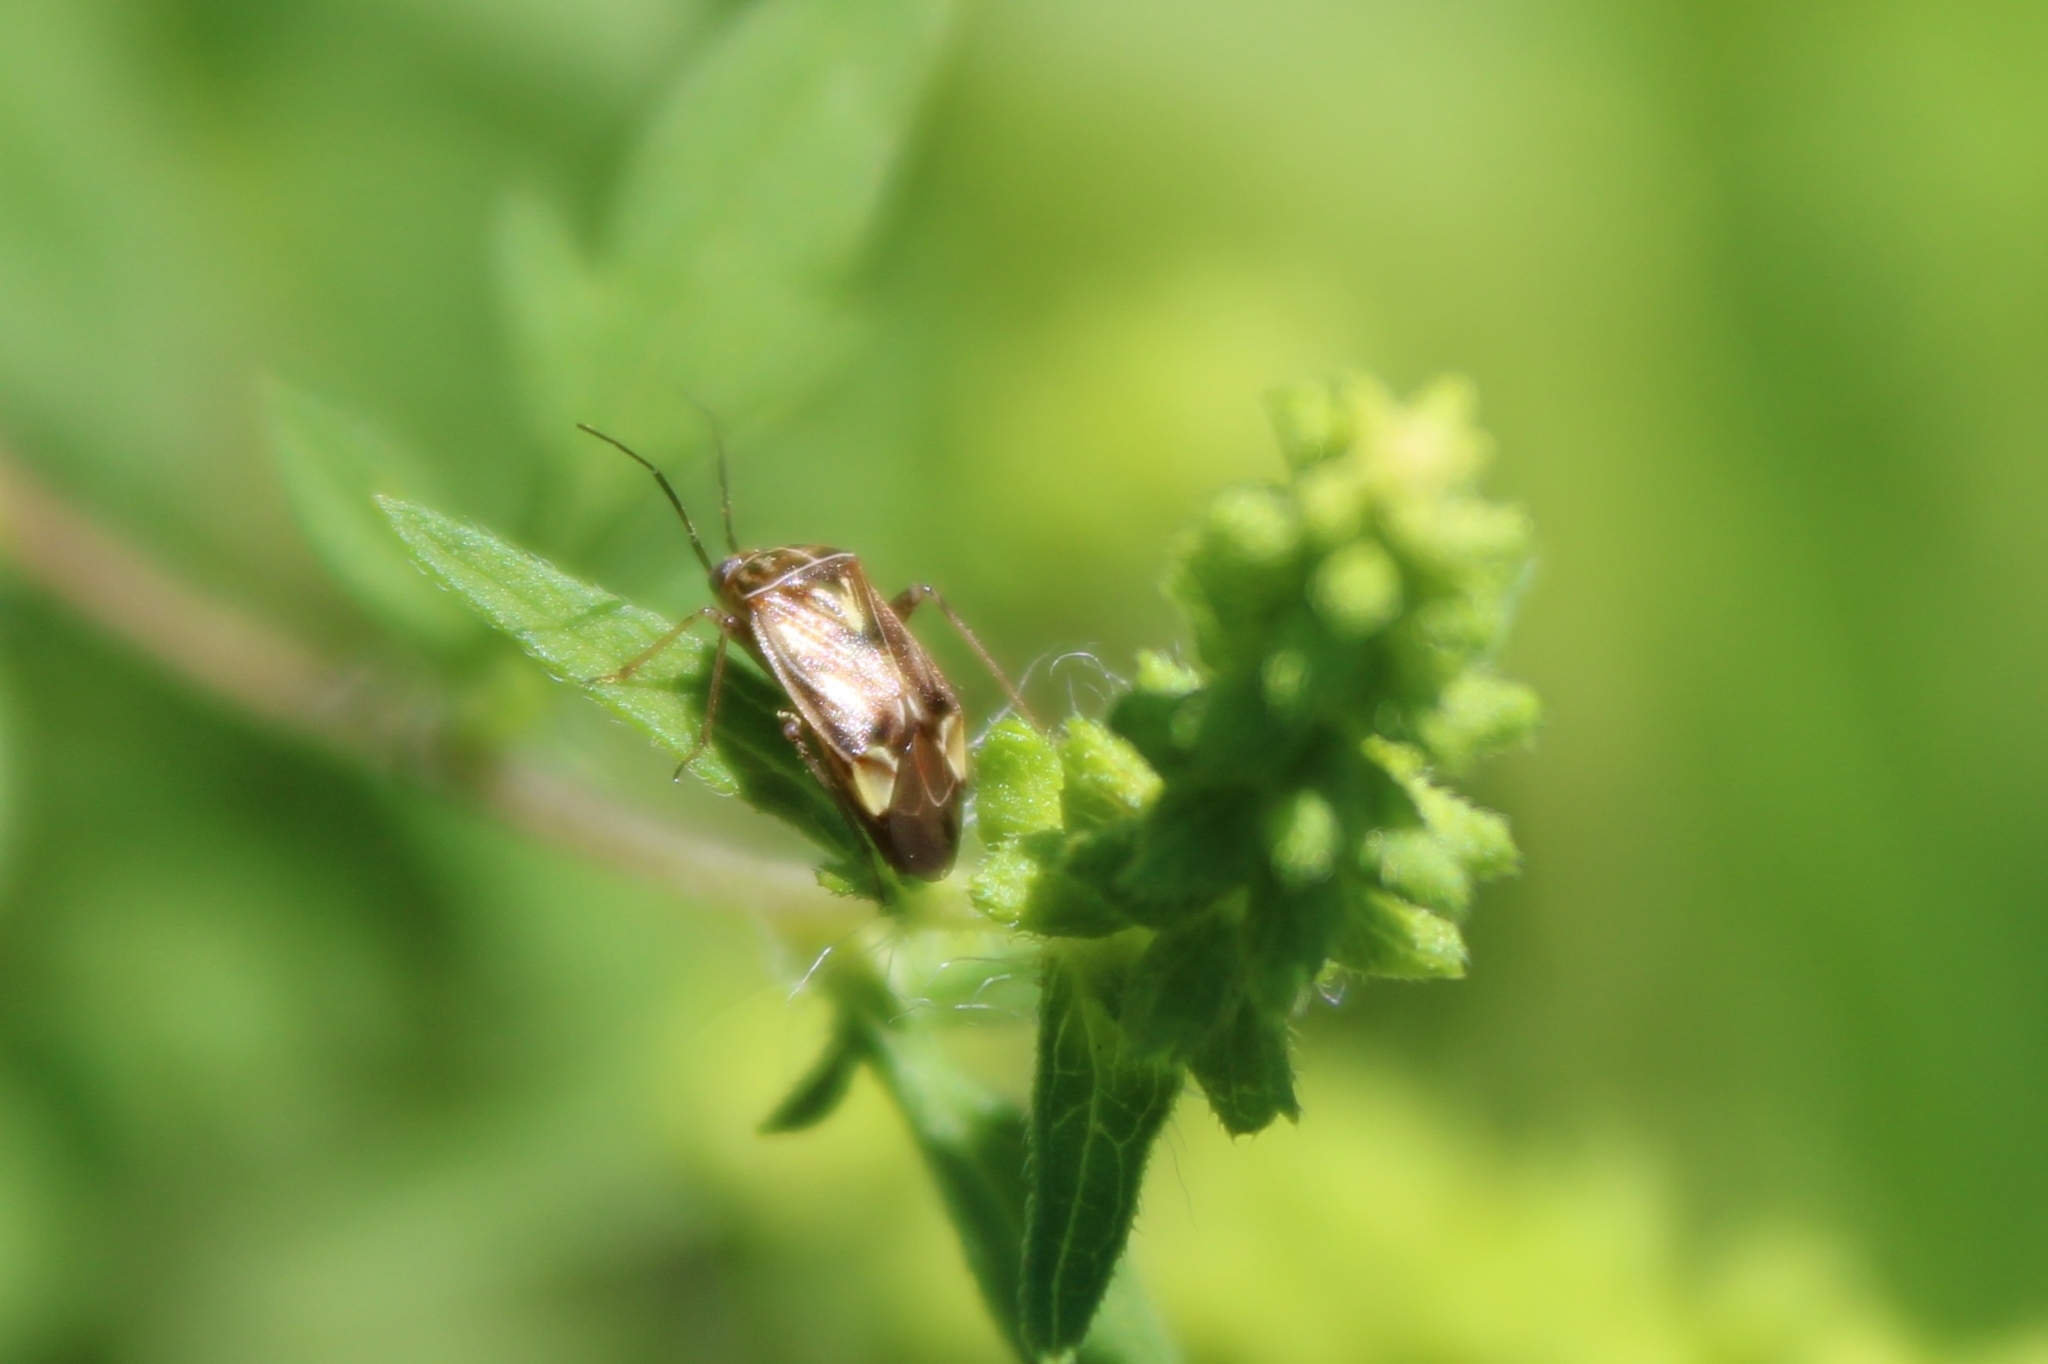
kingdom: Animalia
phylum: Arthropoda
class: Insecta
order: Hemiptera
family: Miridae
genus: Lygus
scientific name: Lygus lineolaris
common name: North american tarnished plant bug
